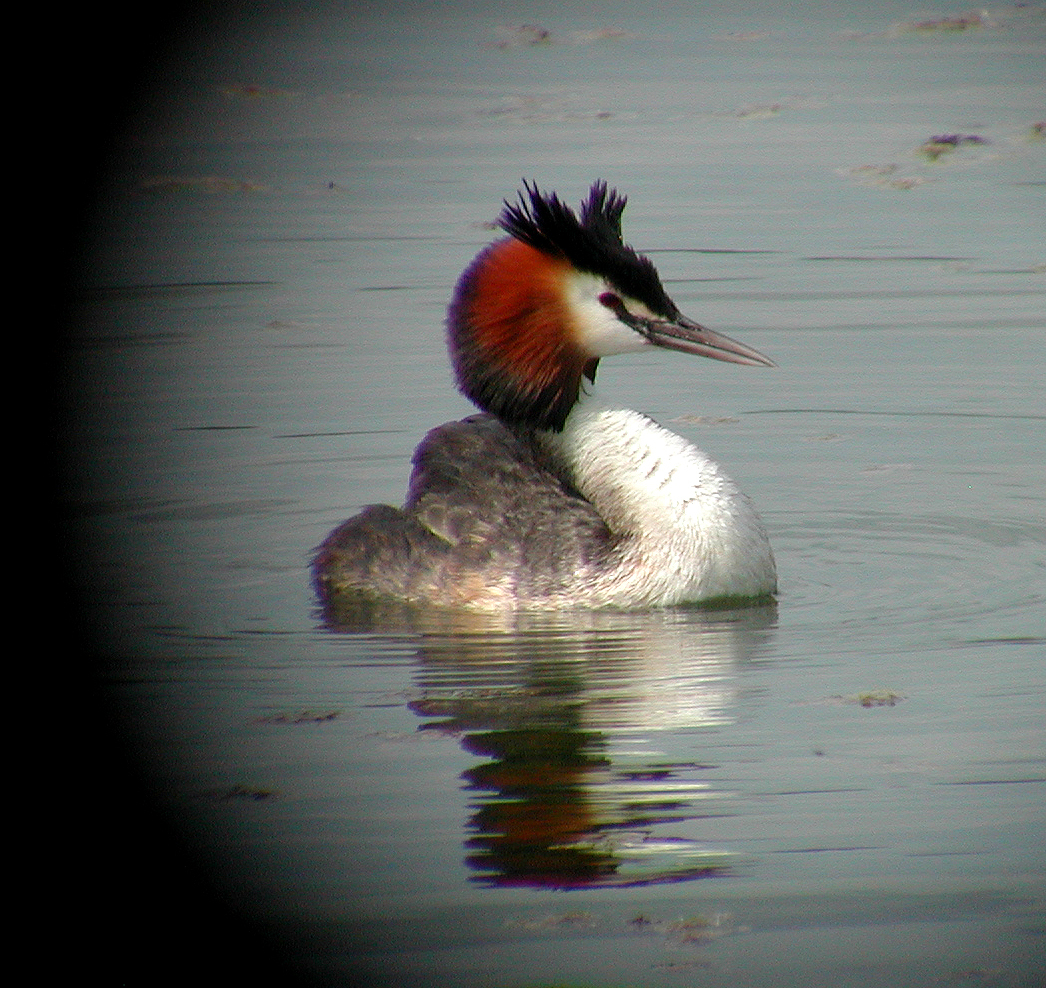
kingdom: Animalia
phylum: Chordata
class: Aves
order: Podicipediformes
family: Podicipedidae
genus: Podiceps
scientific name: Podiceps cristatus
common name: Great crested grebe
